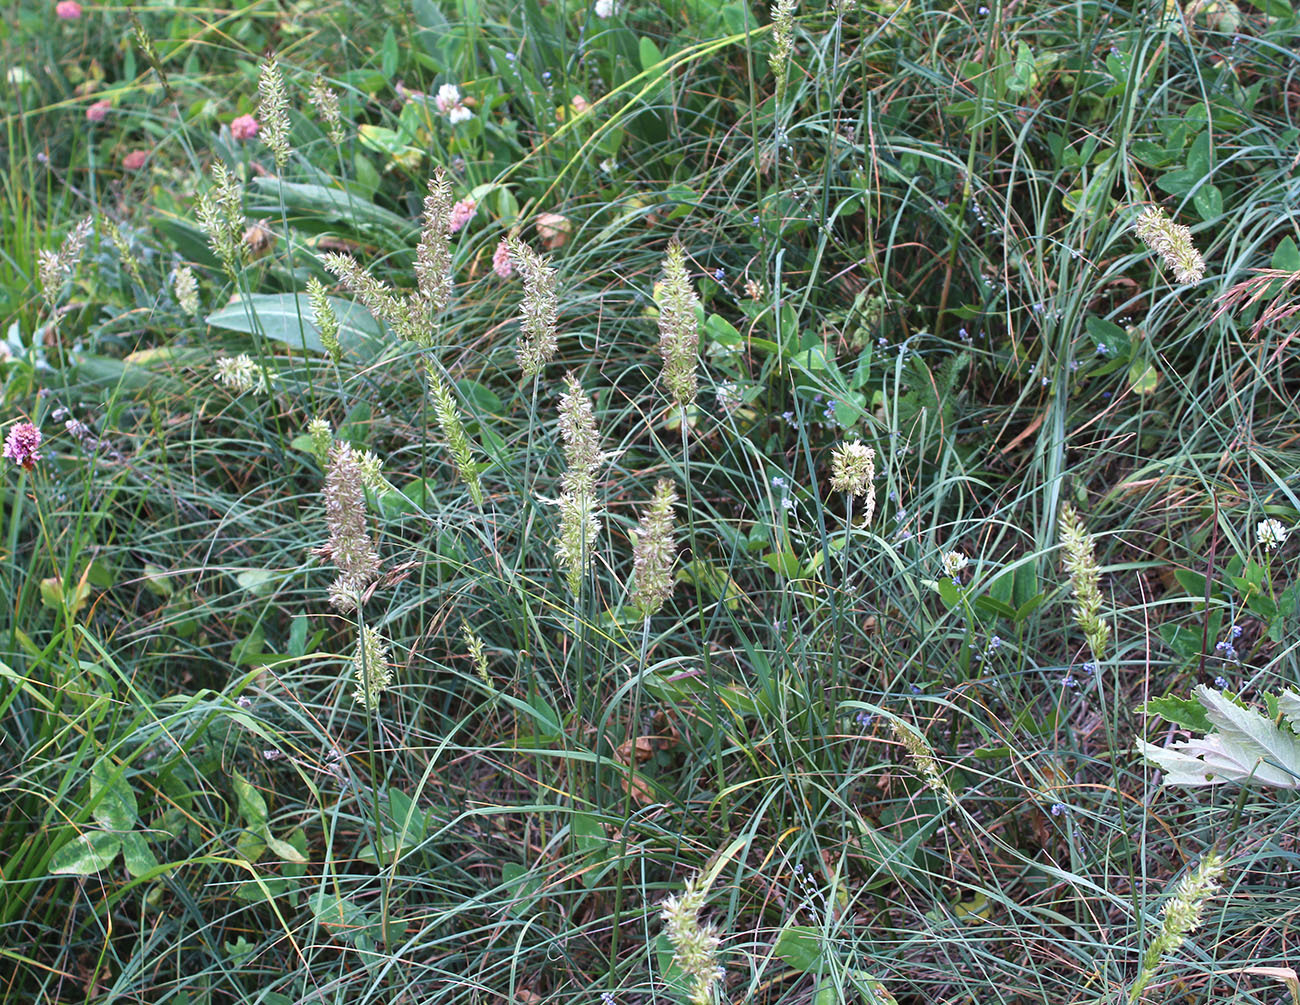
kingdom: Plantae
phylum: Tracheophyta
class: Liliopsida
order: Poales
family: Poaceae
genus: Koeleria
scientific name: Koeleria eriostachya
